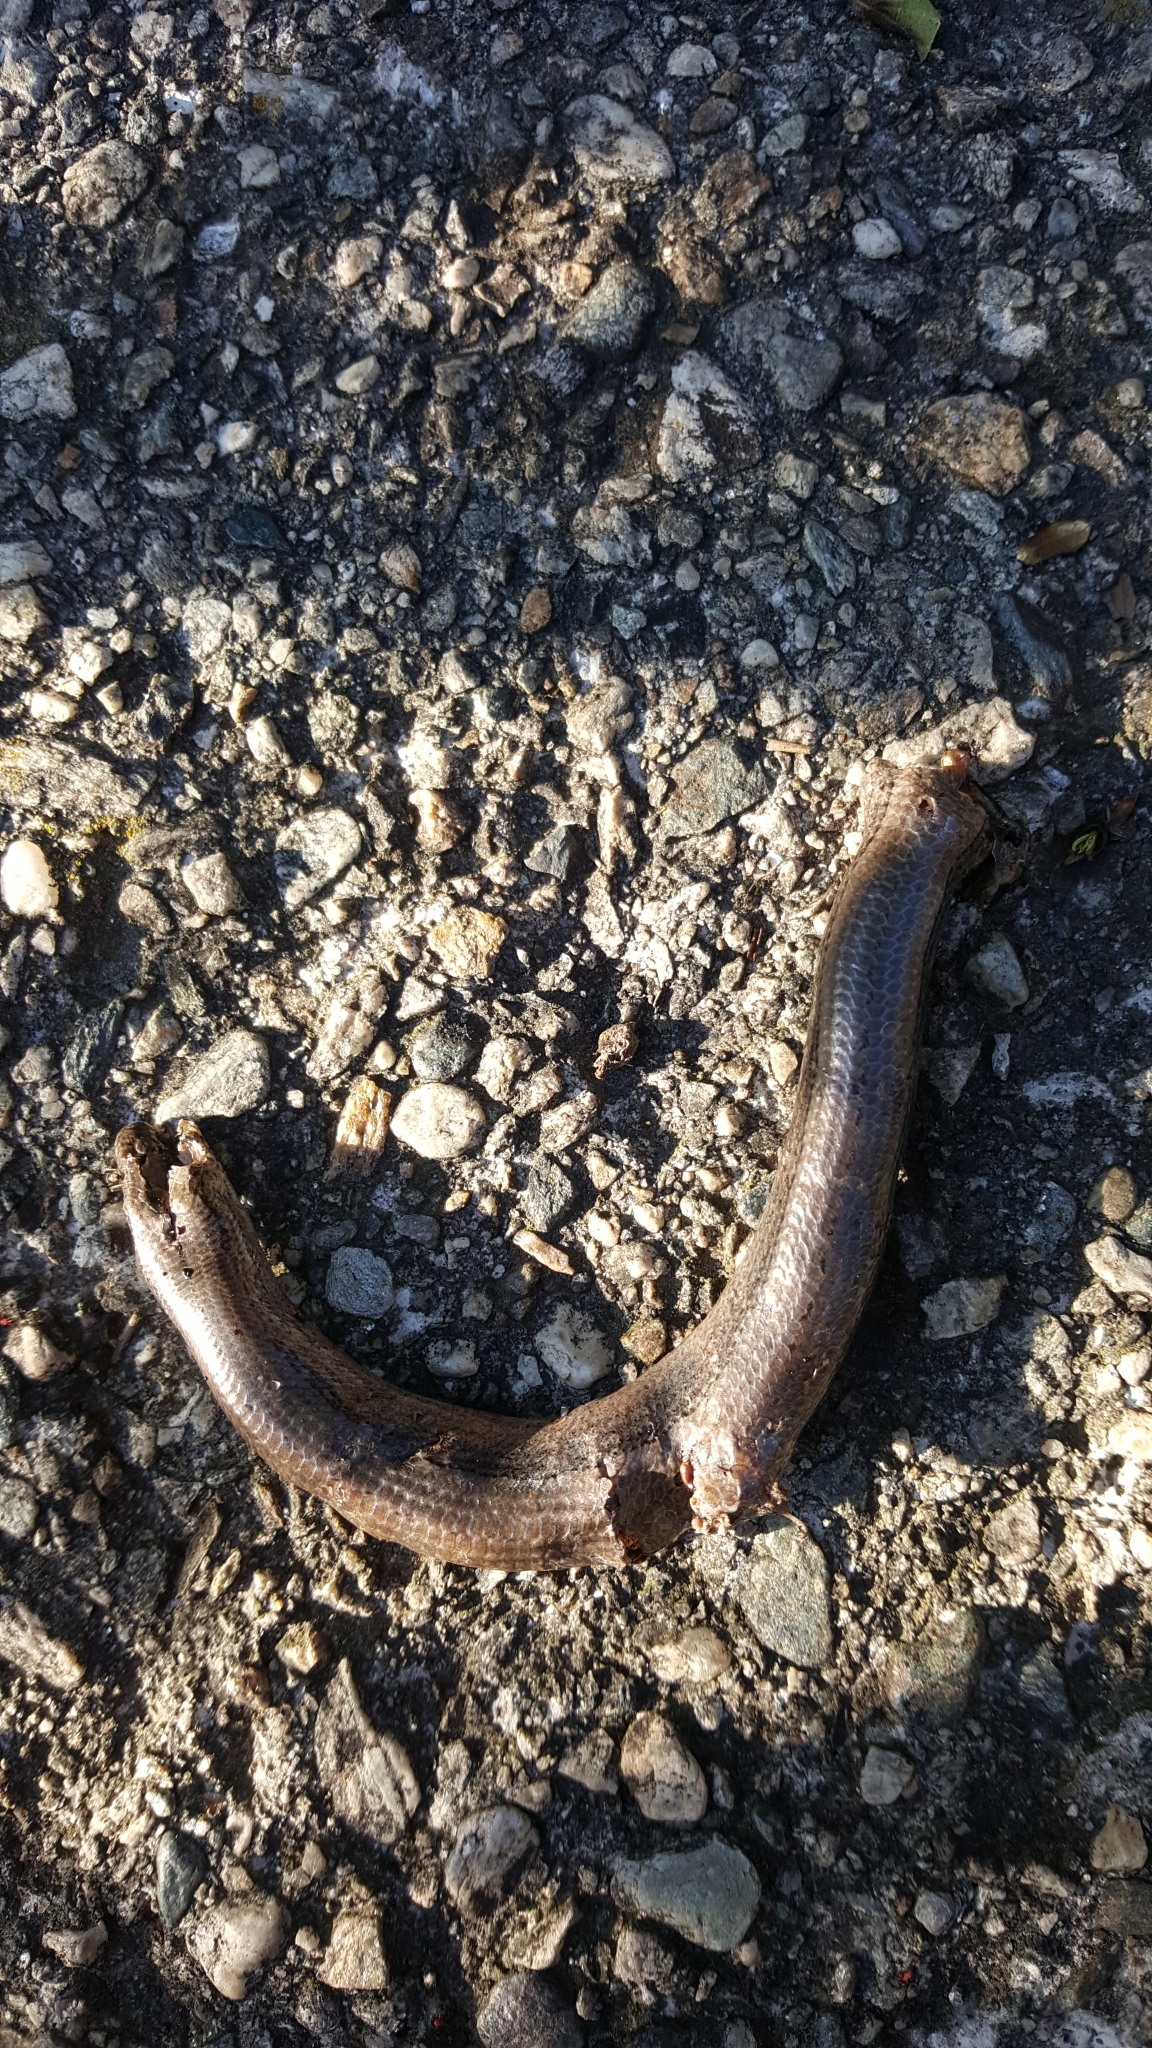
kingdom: Animalia
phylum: Chordata
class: Squamata
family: Anguidae
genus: Anguis
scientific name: Anguis veronensis
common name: Italian slow worm
